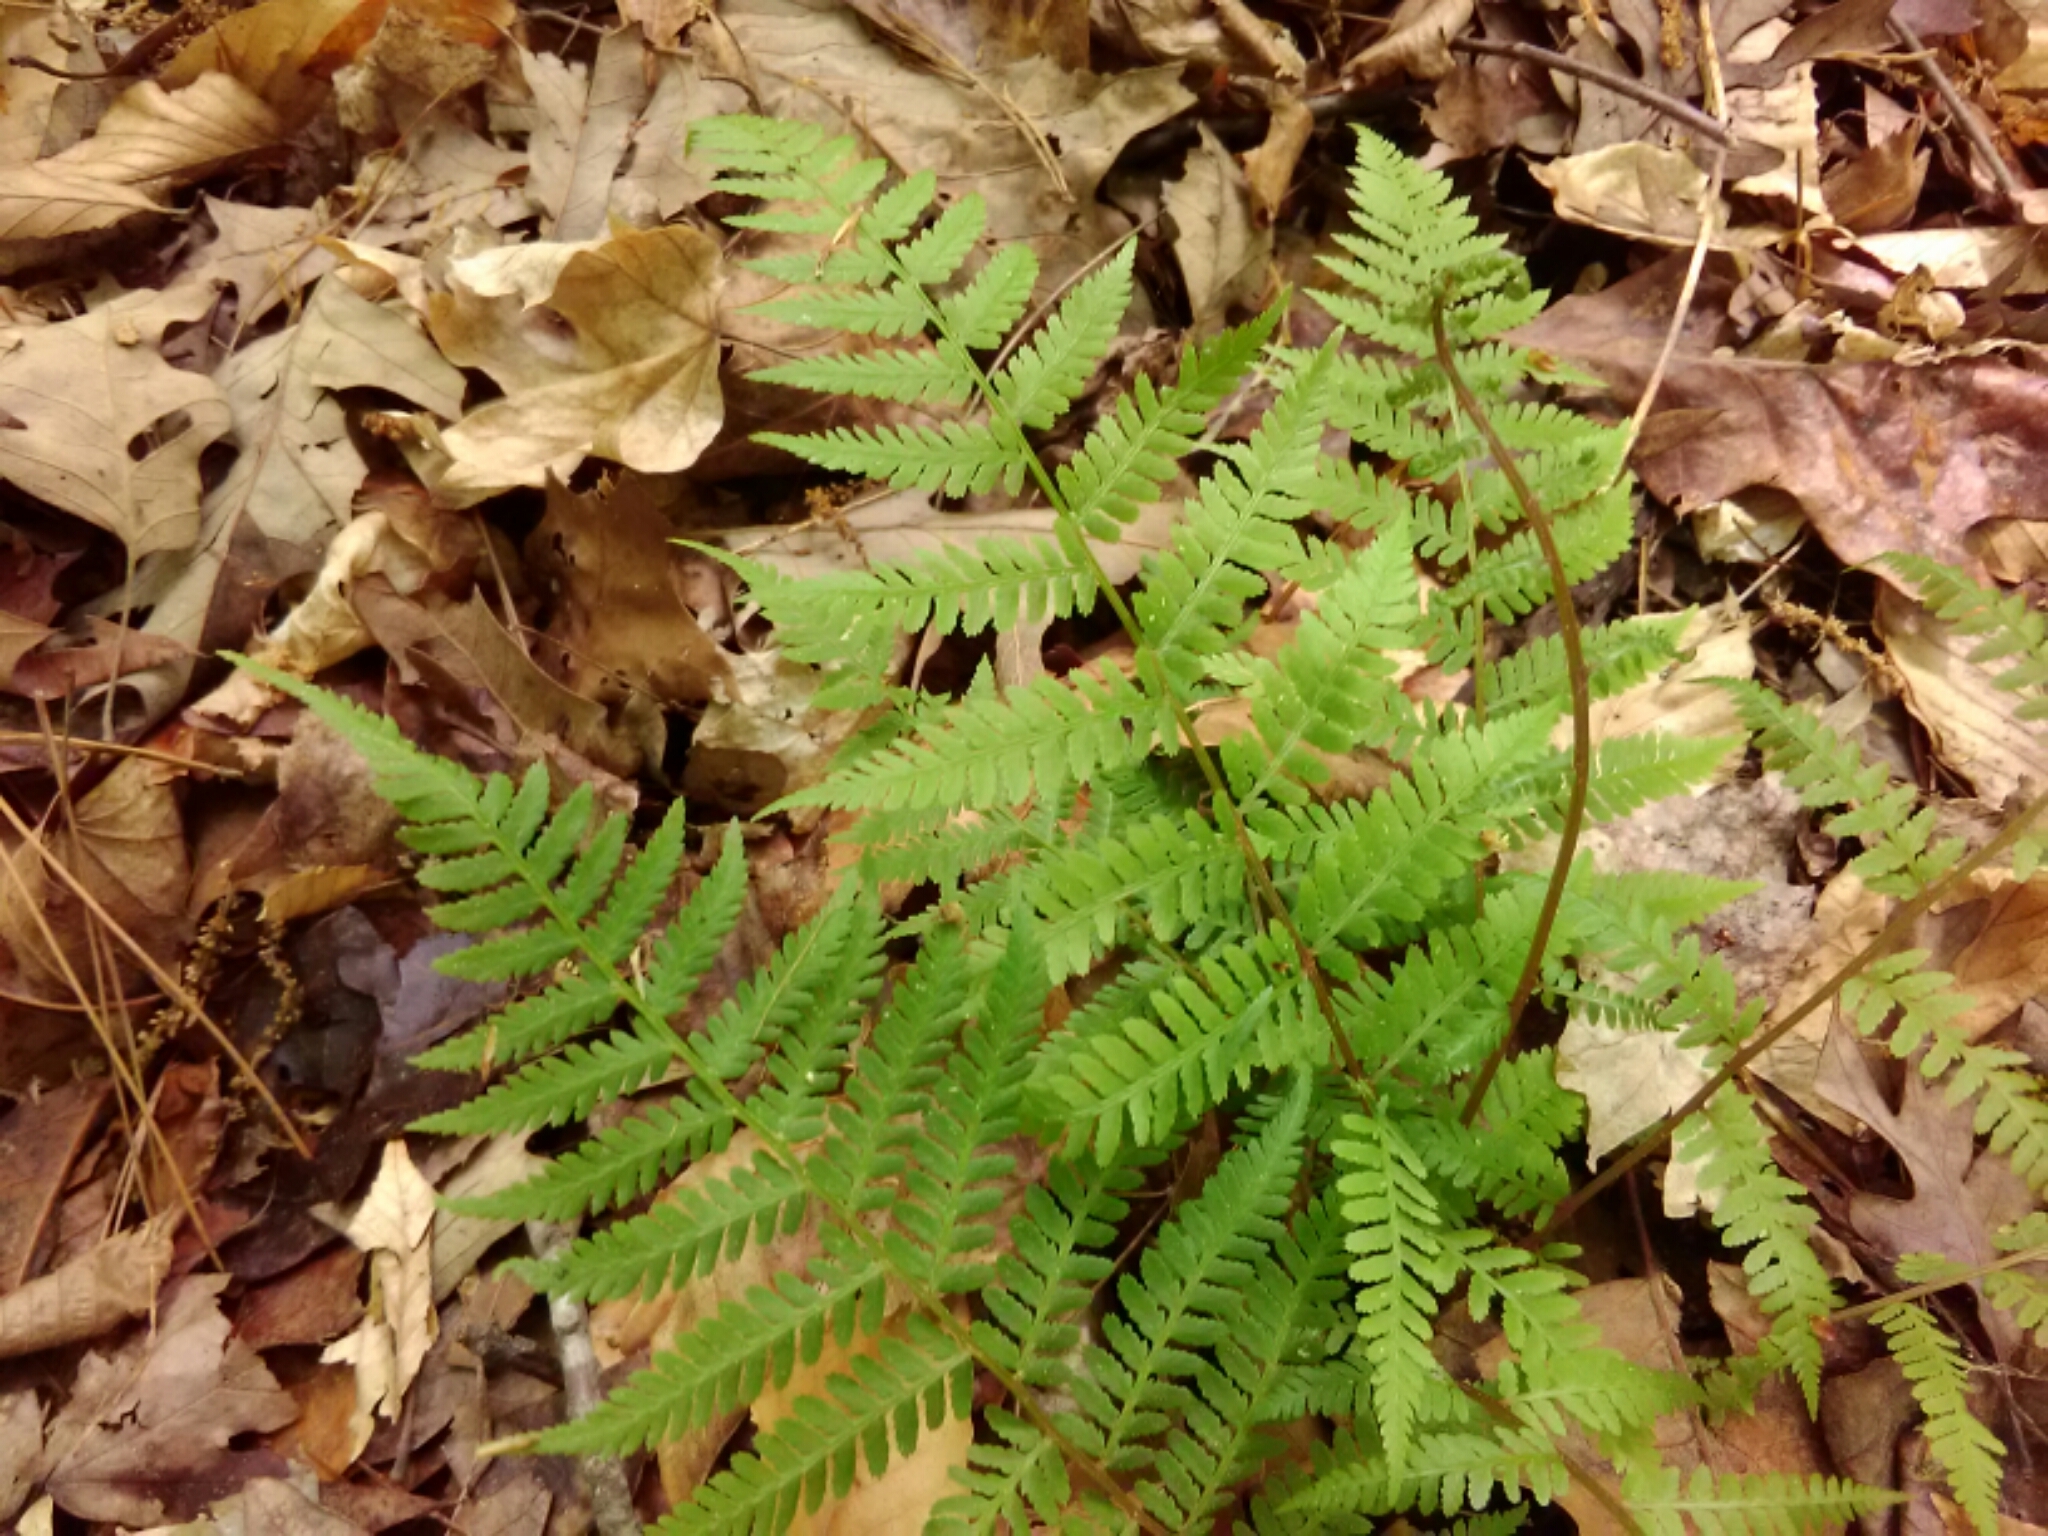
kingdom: Plantae
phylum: Tracheophyta
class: Polypodiopsida
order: Polypodiales
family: Athyriaceae
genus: Athyrium
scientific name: Athyrium asplenioides
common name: Southern lady fern
